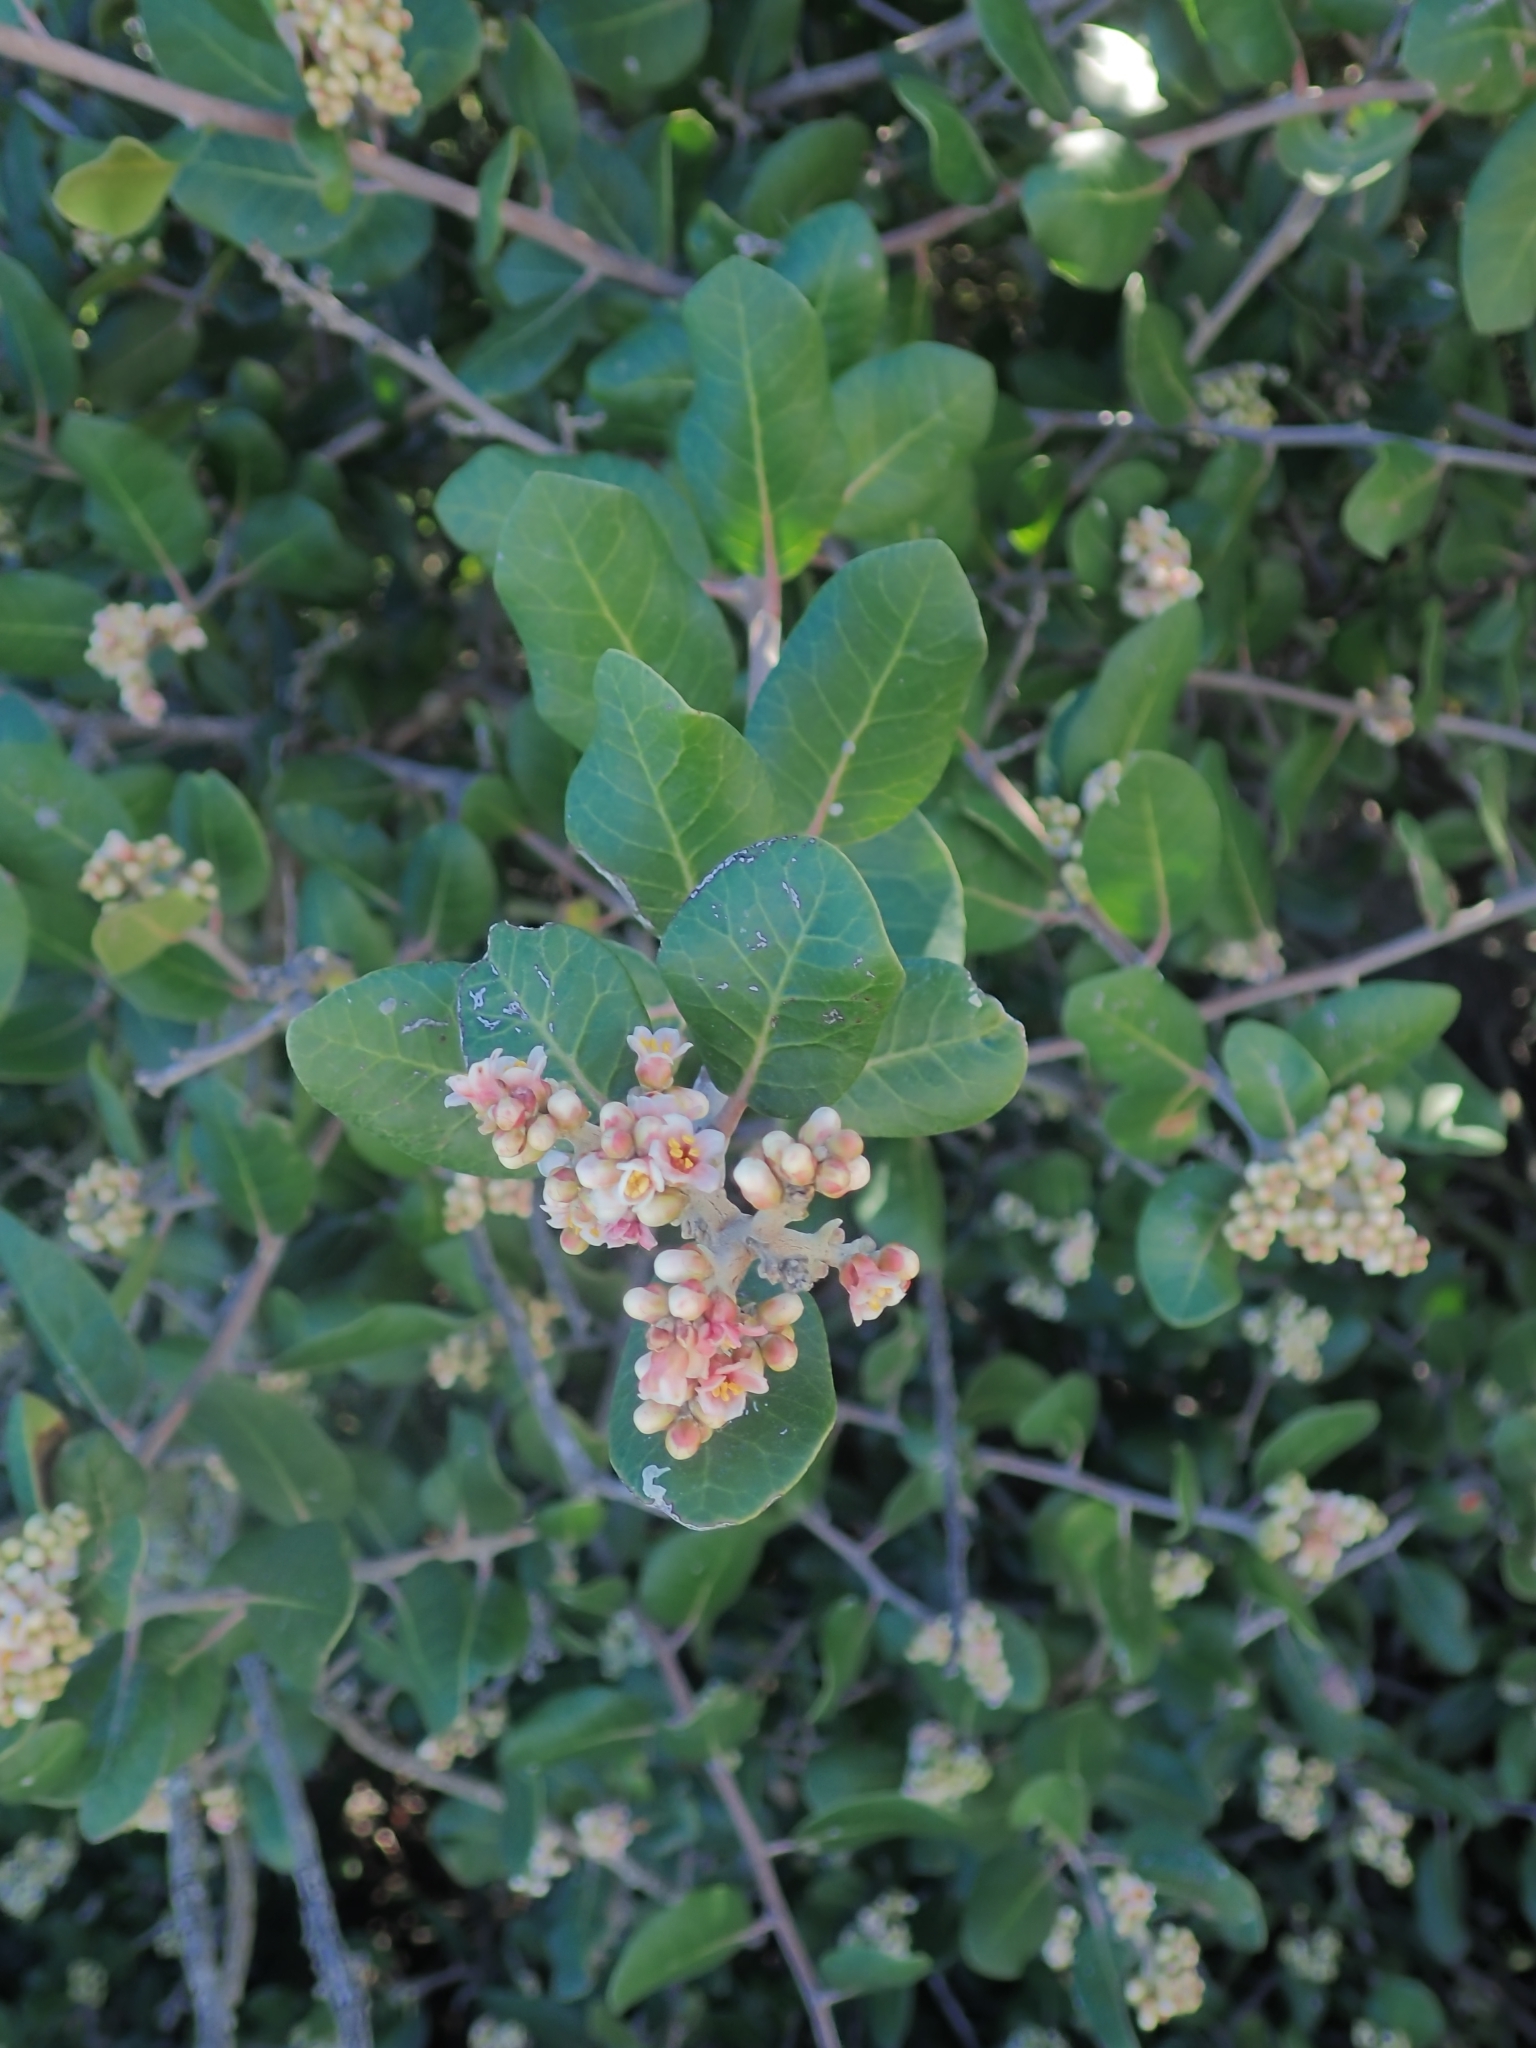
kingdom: Plantae
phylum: Tracheophyta
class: Magnoliopsida
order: Sapindales
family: Anacardiaceae
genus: Rhus
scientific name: Rhus integrifolia
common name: Lemonade sumac
